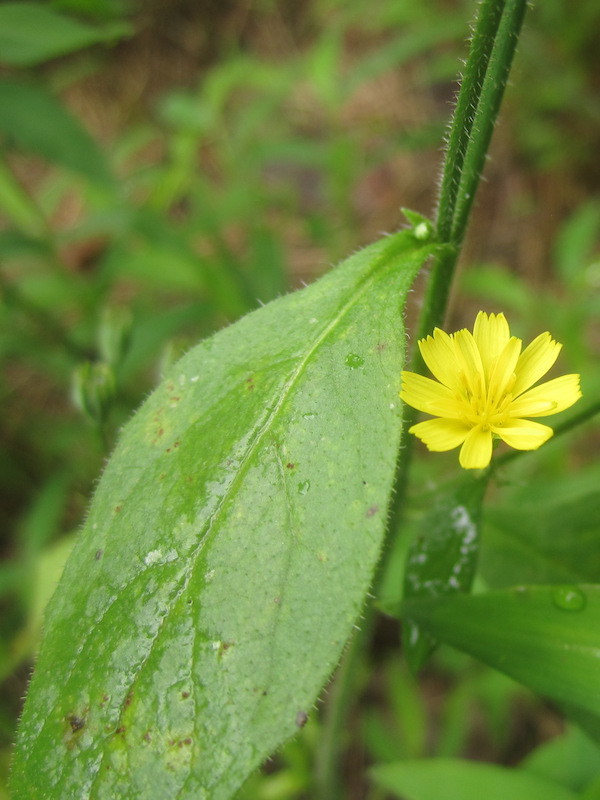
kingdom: Plantae
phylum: Tracheophyta
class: Magnoliopsida
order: Asterales
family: Asteraceae
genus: Lapsana
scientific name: Lapsana communis
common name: Nipplewort
